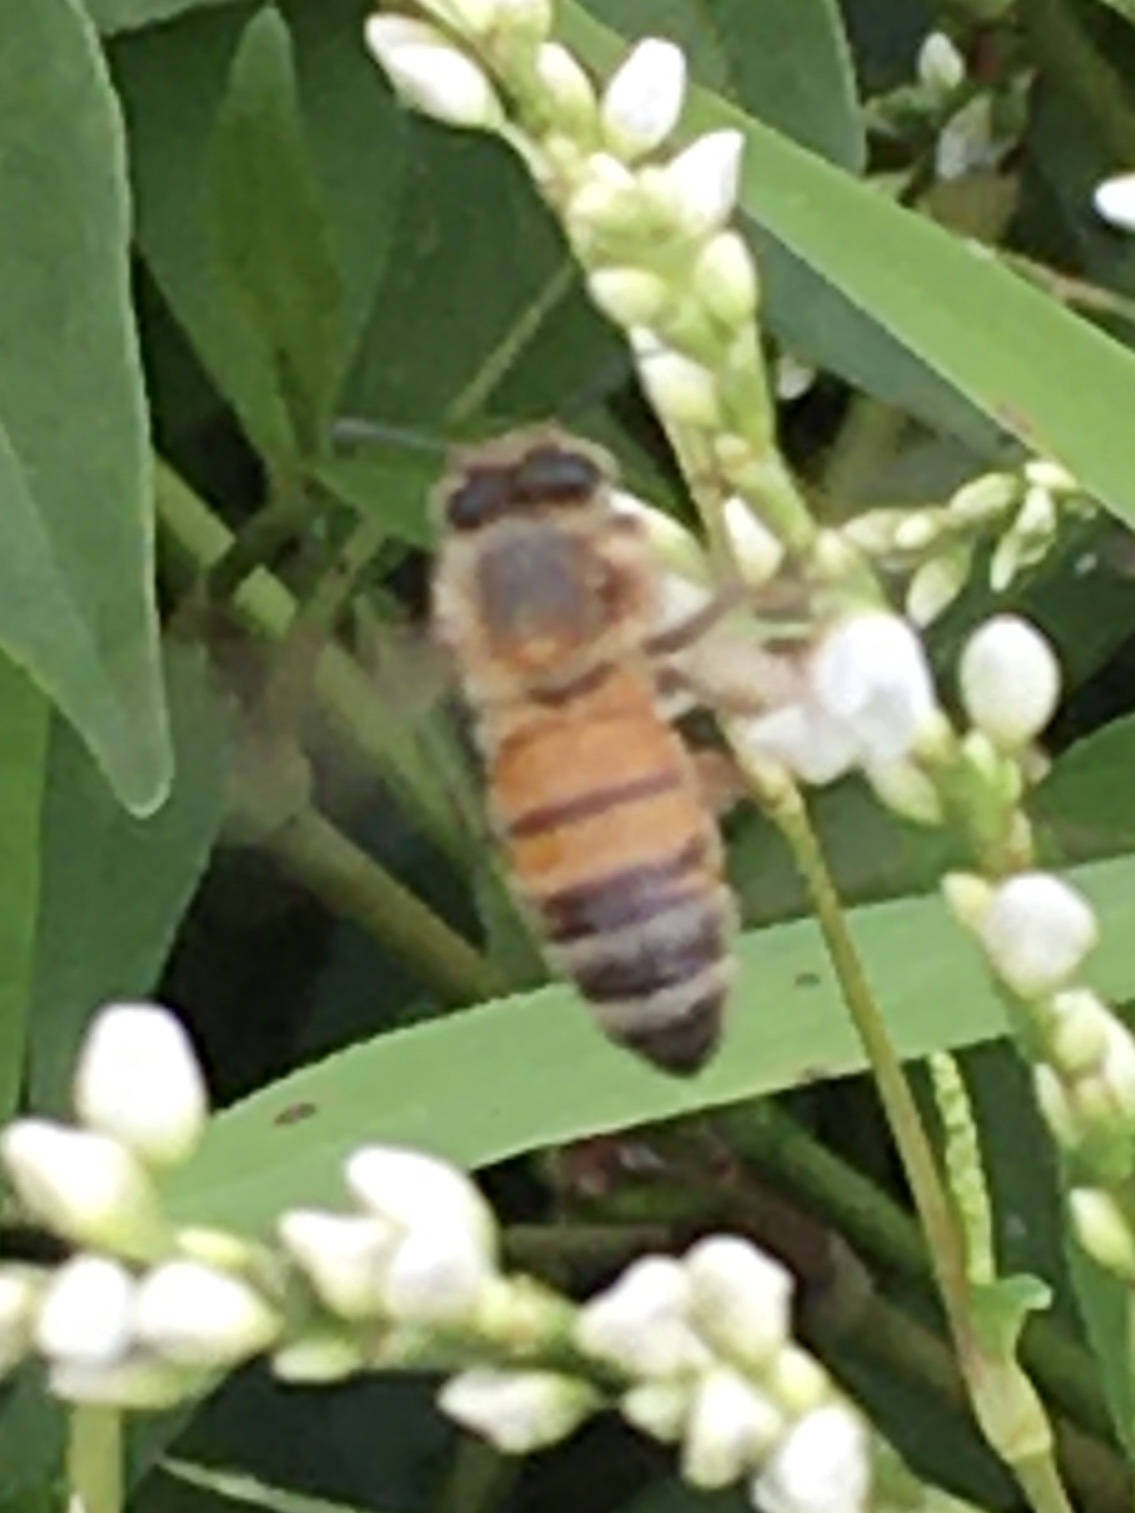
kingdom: Animalia
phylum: Arthropoda
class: Insecta
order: Hymenoptera
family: Apidae
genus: Apis
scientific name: Apis mellifera
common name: Honey bee
